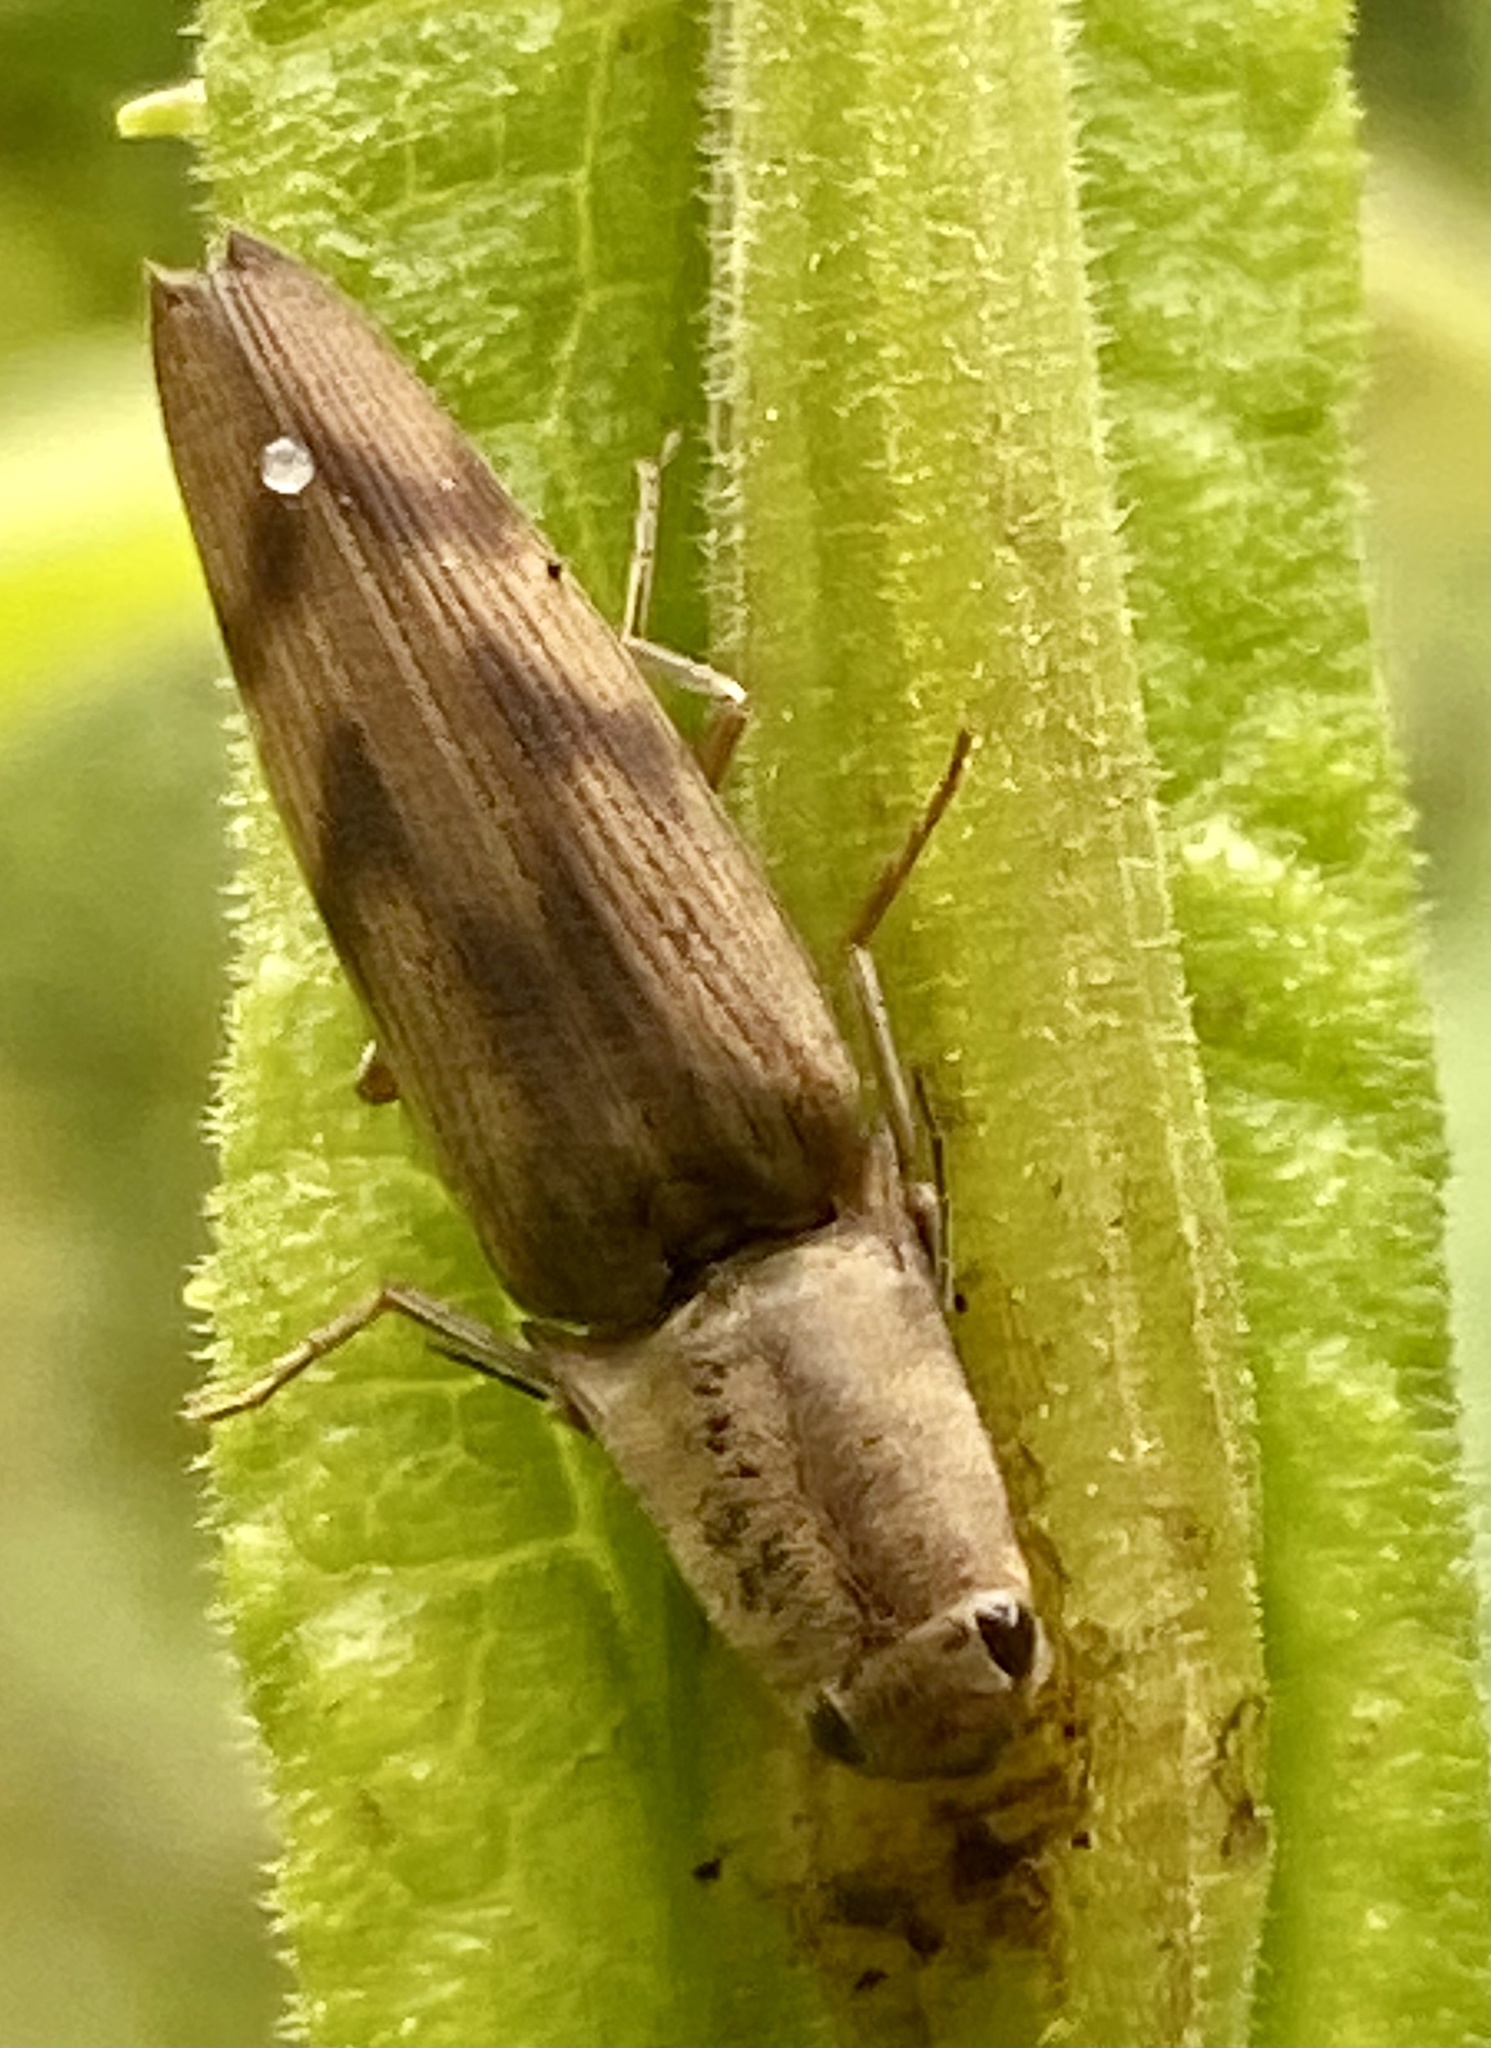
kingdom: Animalia
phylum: Arthropoda
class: Insecta
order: Coleoptera
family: Elateridae
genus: Monocrepidius
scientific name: Monocrepidius
